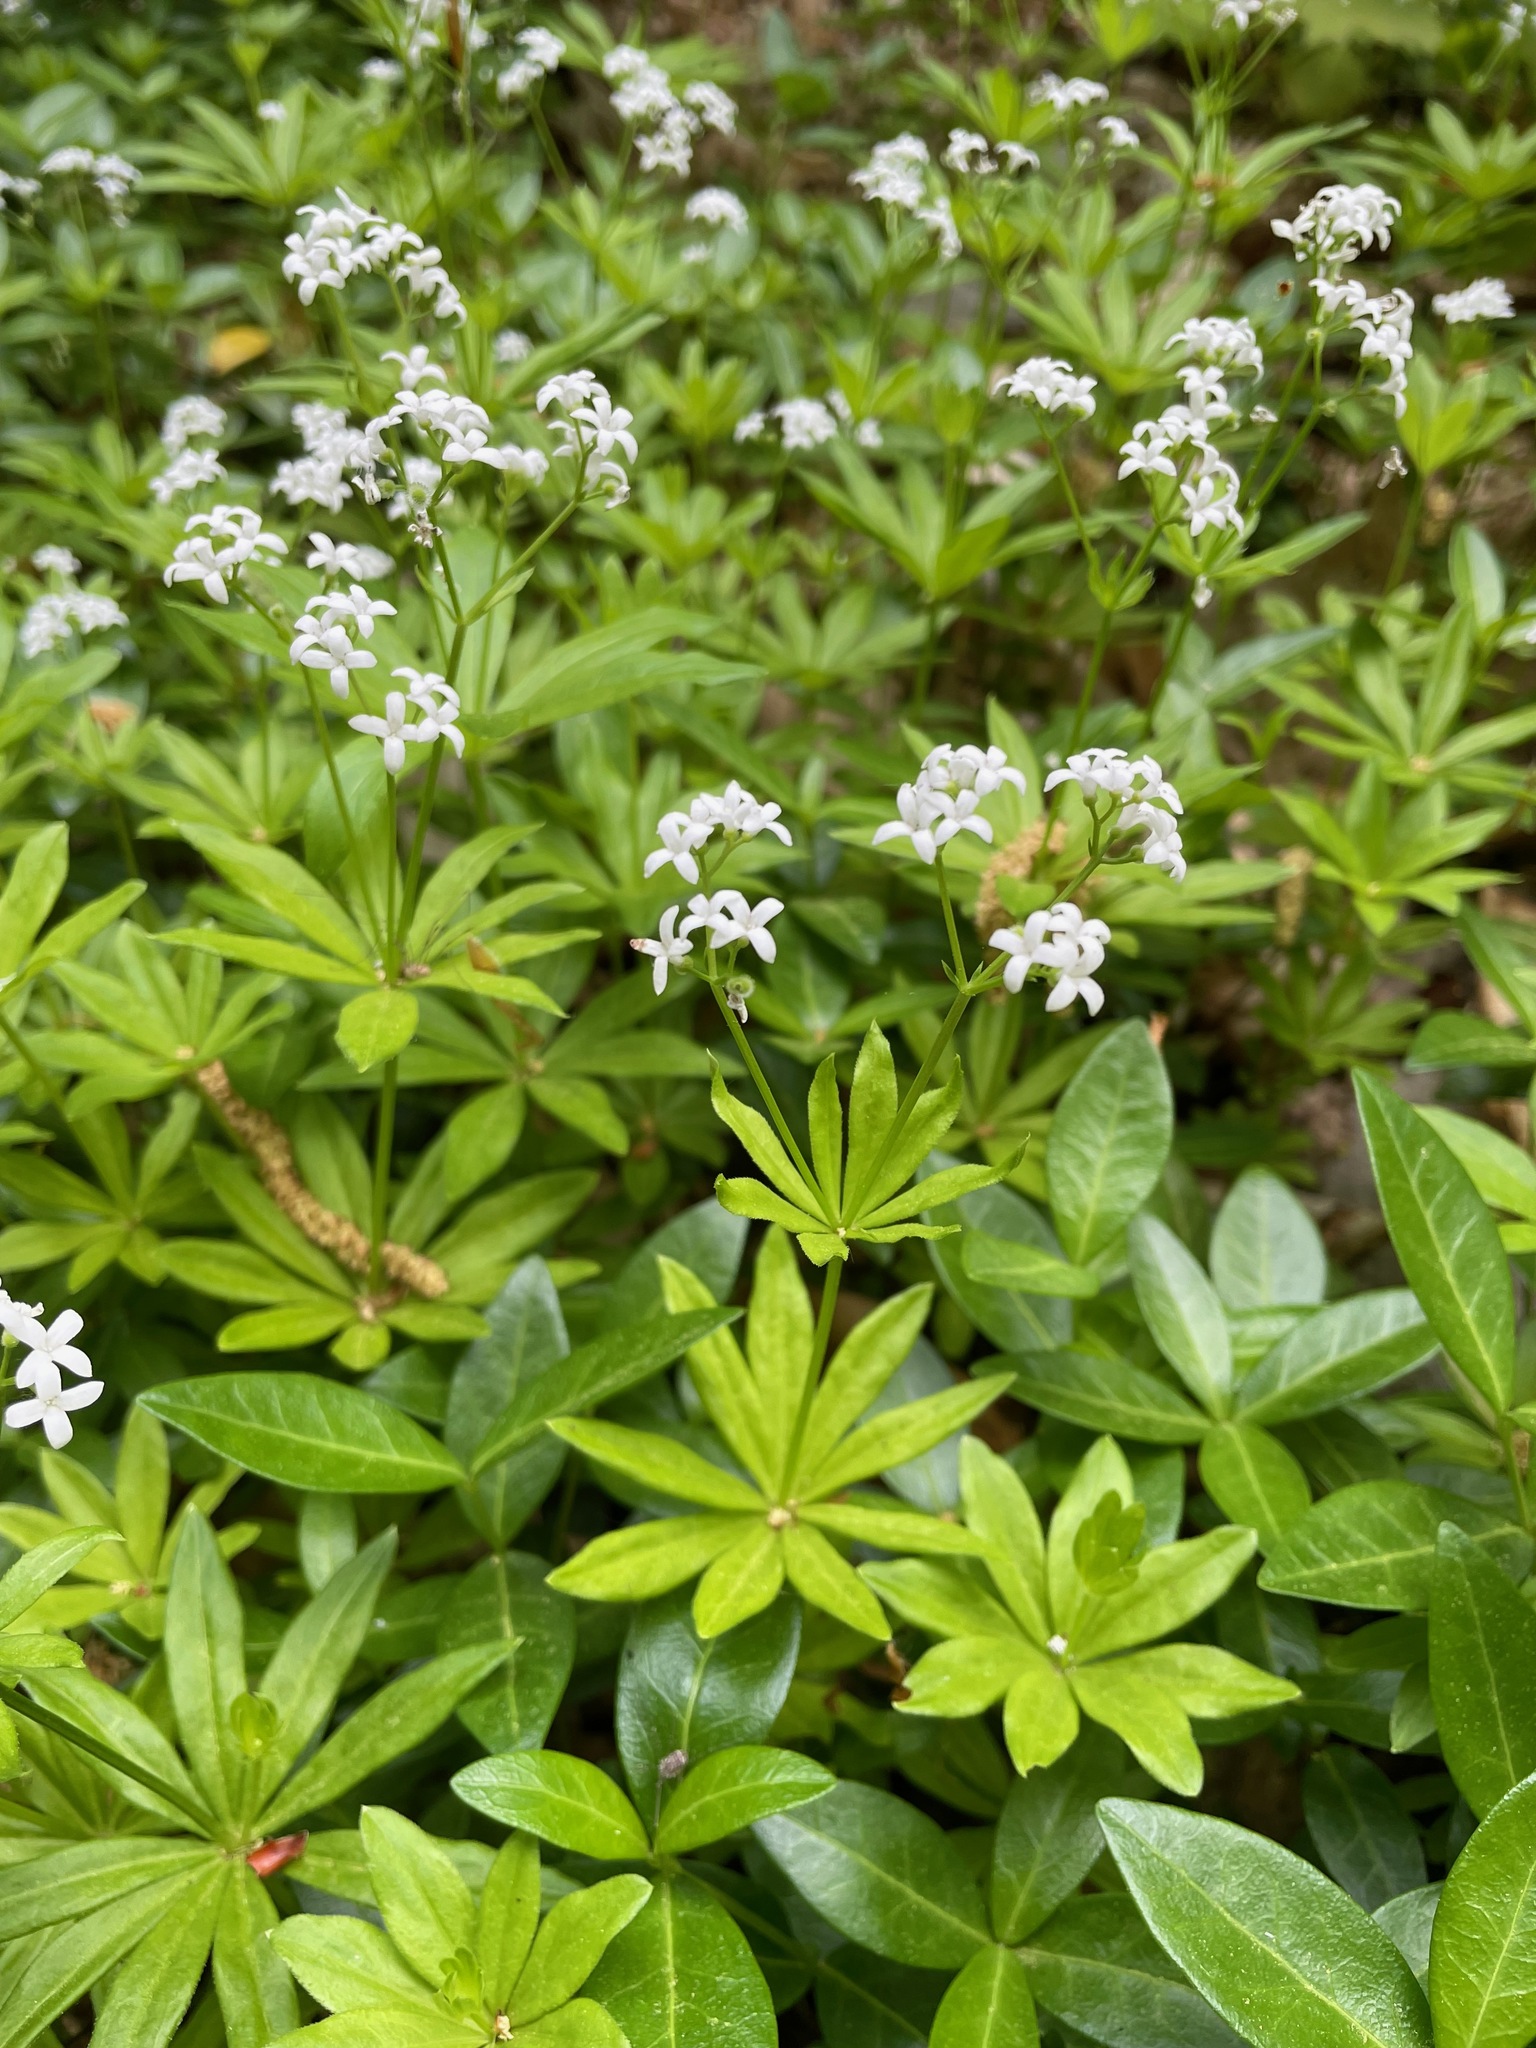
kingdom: Plantae
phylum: Tracheophyta
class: Magnoliopsida
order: Gentianales
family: Rubiaceae
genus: Galium
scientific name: Galium odoratum
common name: Sweet woodruff
